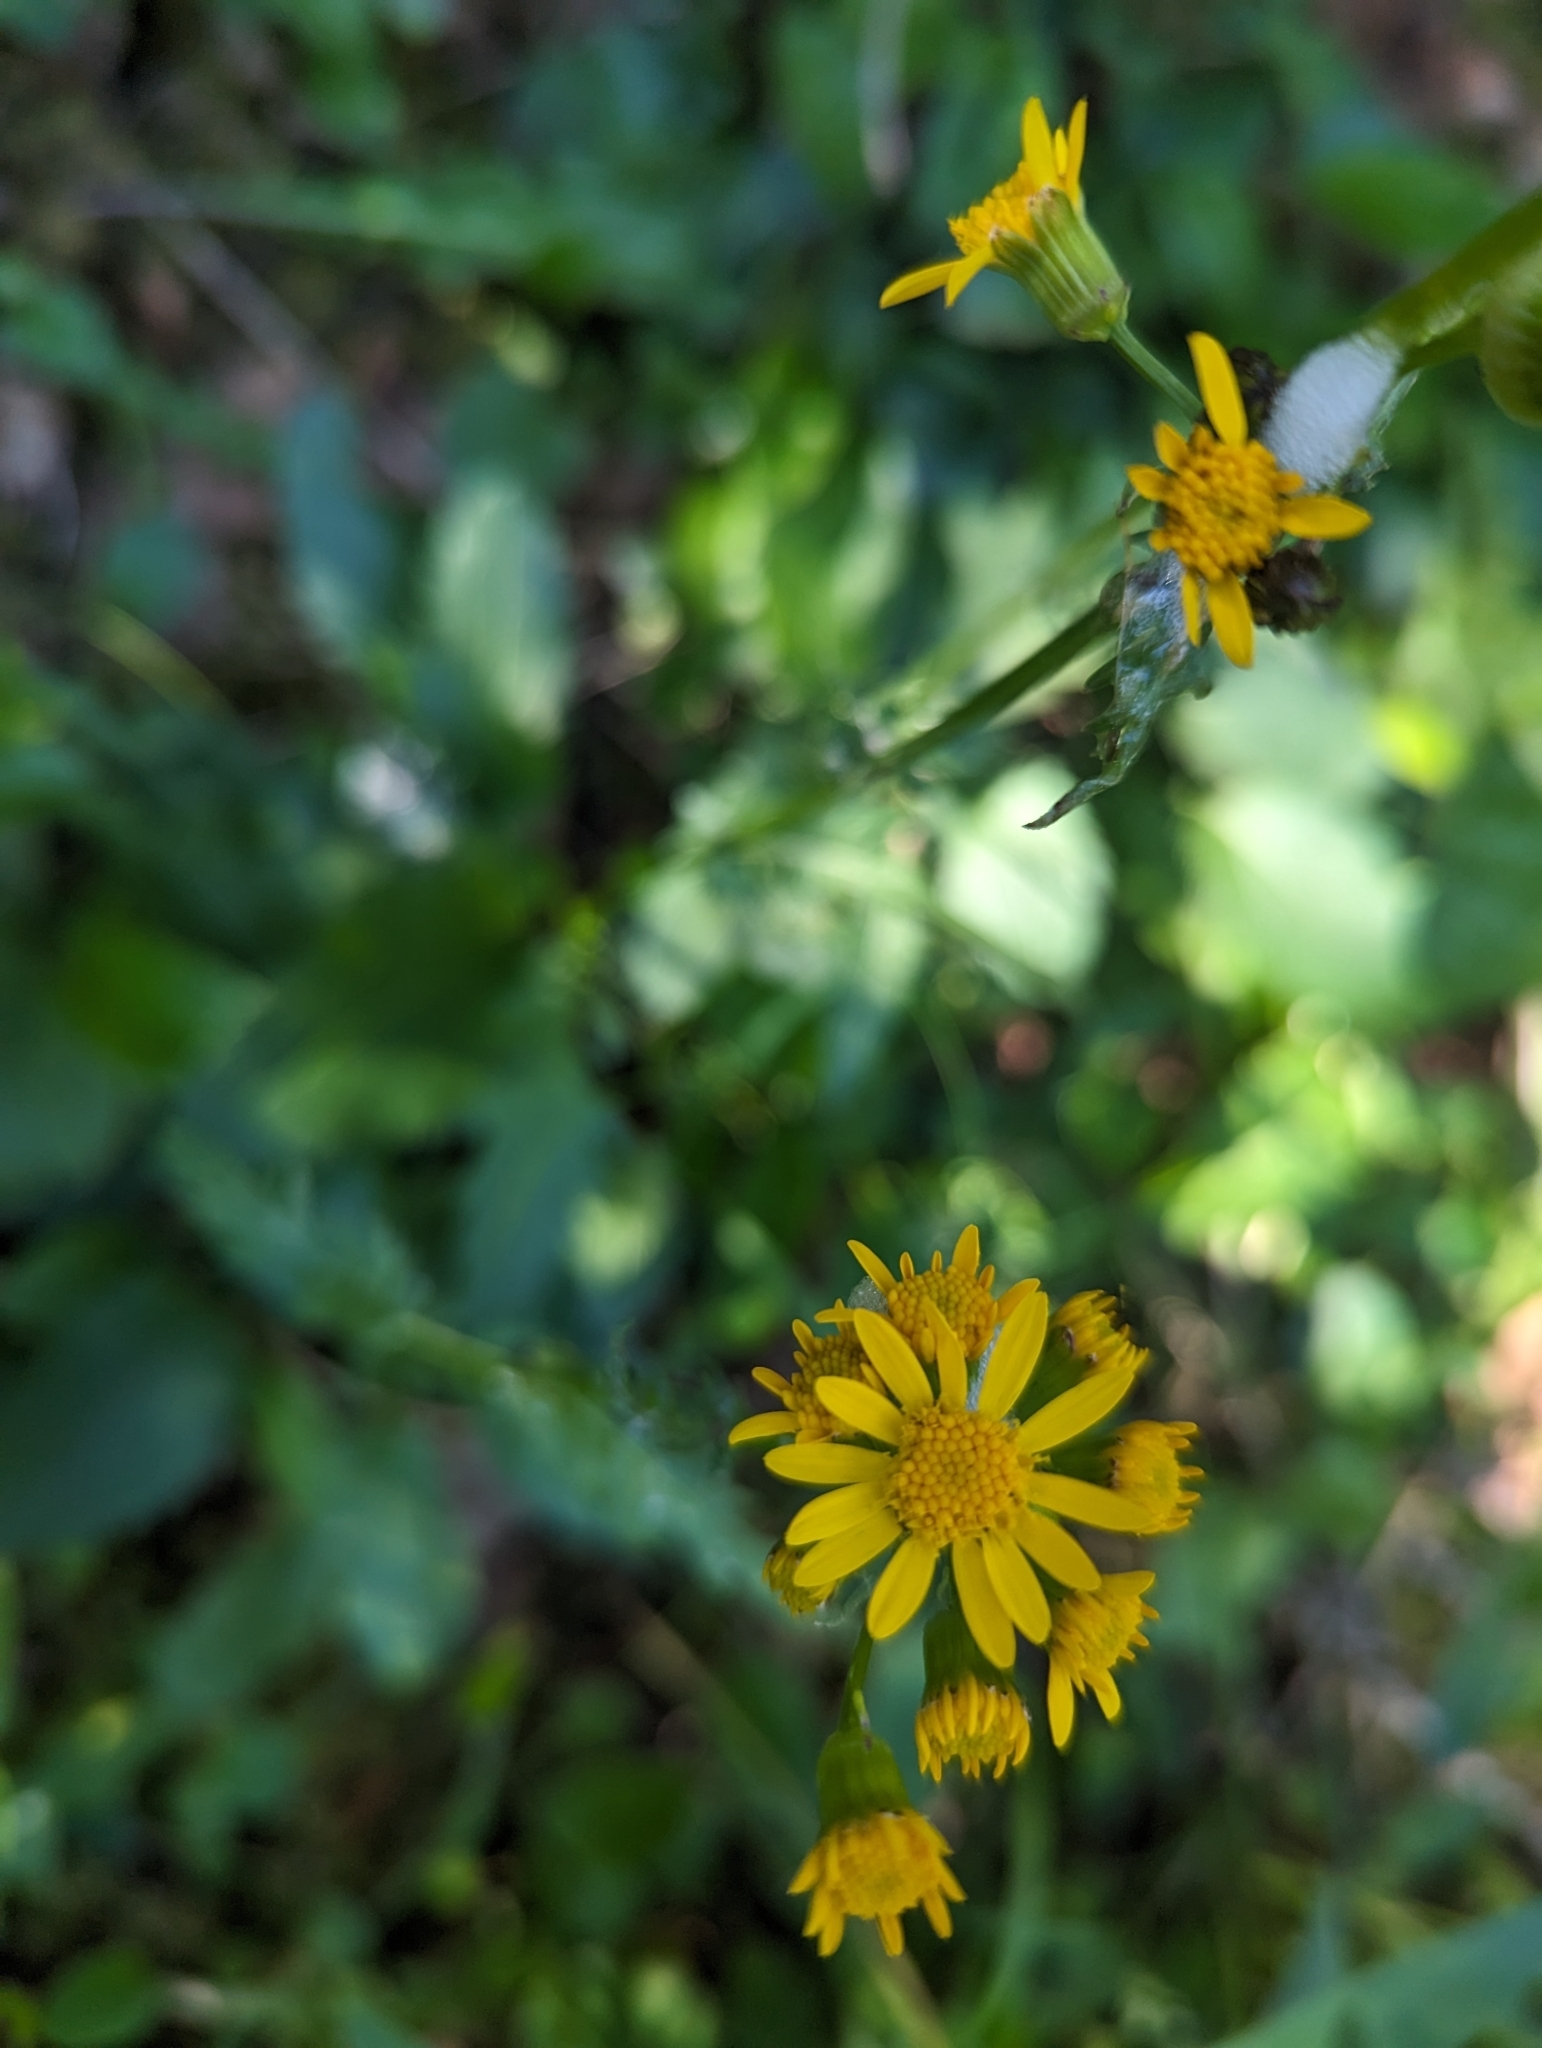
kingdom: Plantae
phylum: Tracheophyta
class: Magnoliopsida
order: Asterales
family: Asteraceae
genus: Packera
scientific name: Packera paupercula
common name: Balsam groundsel
